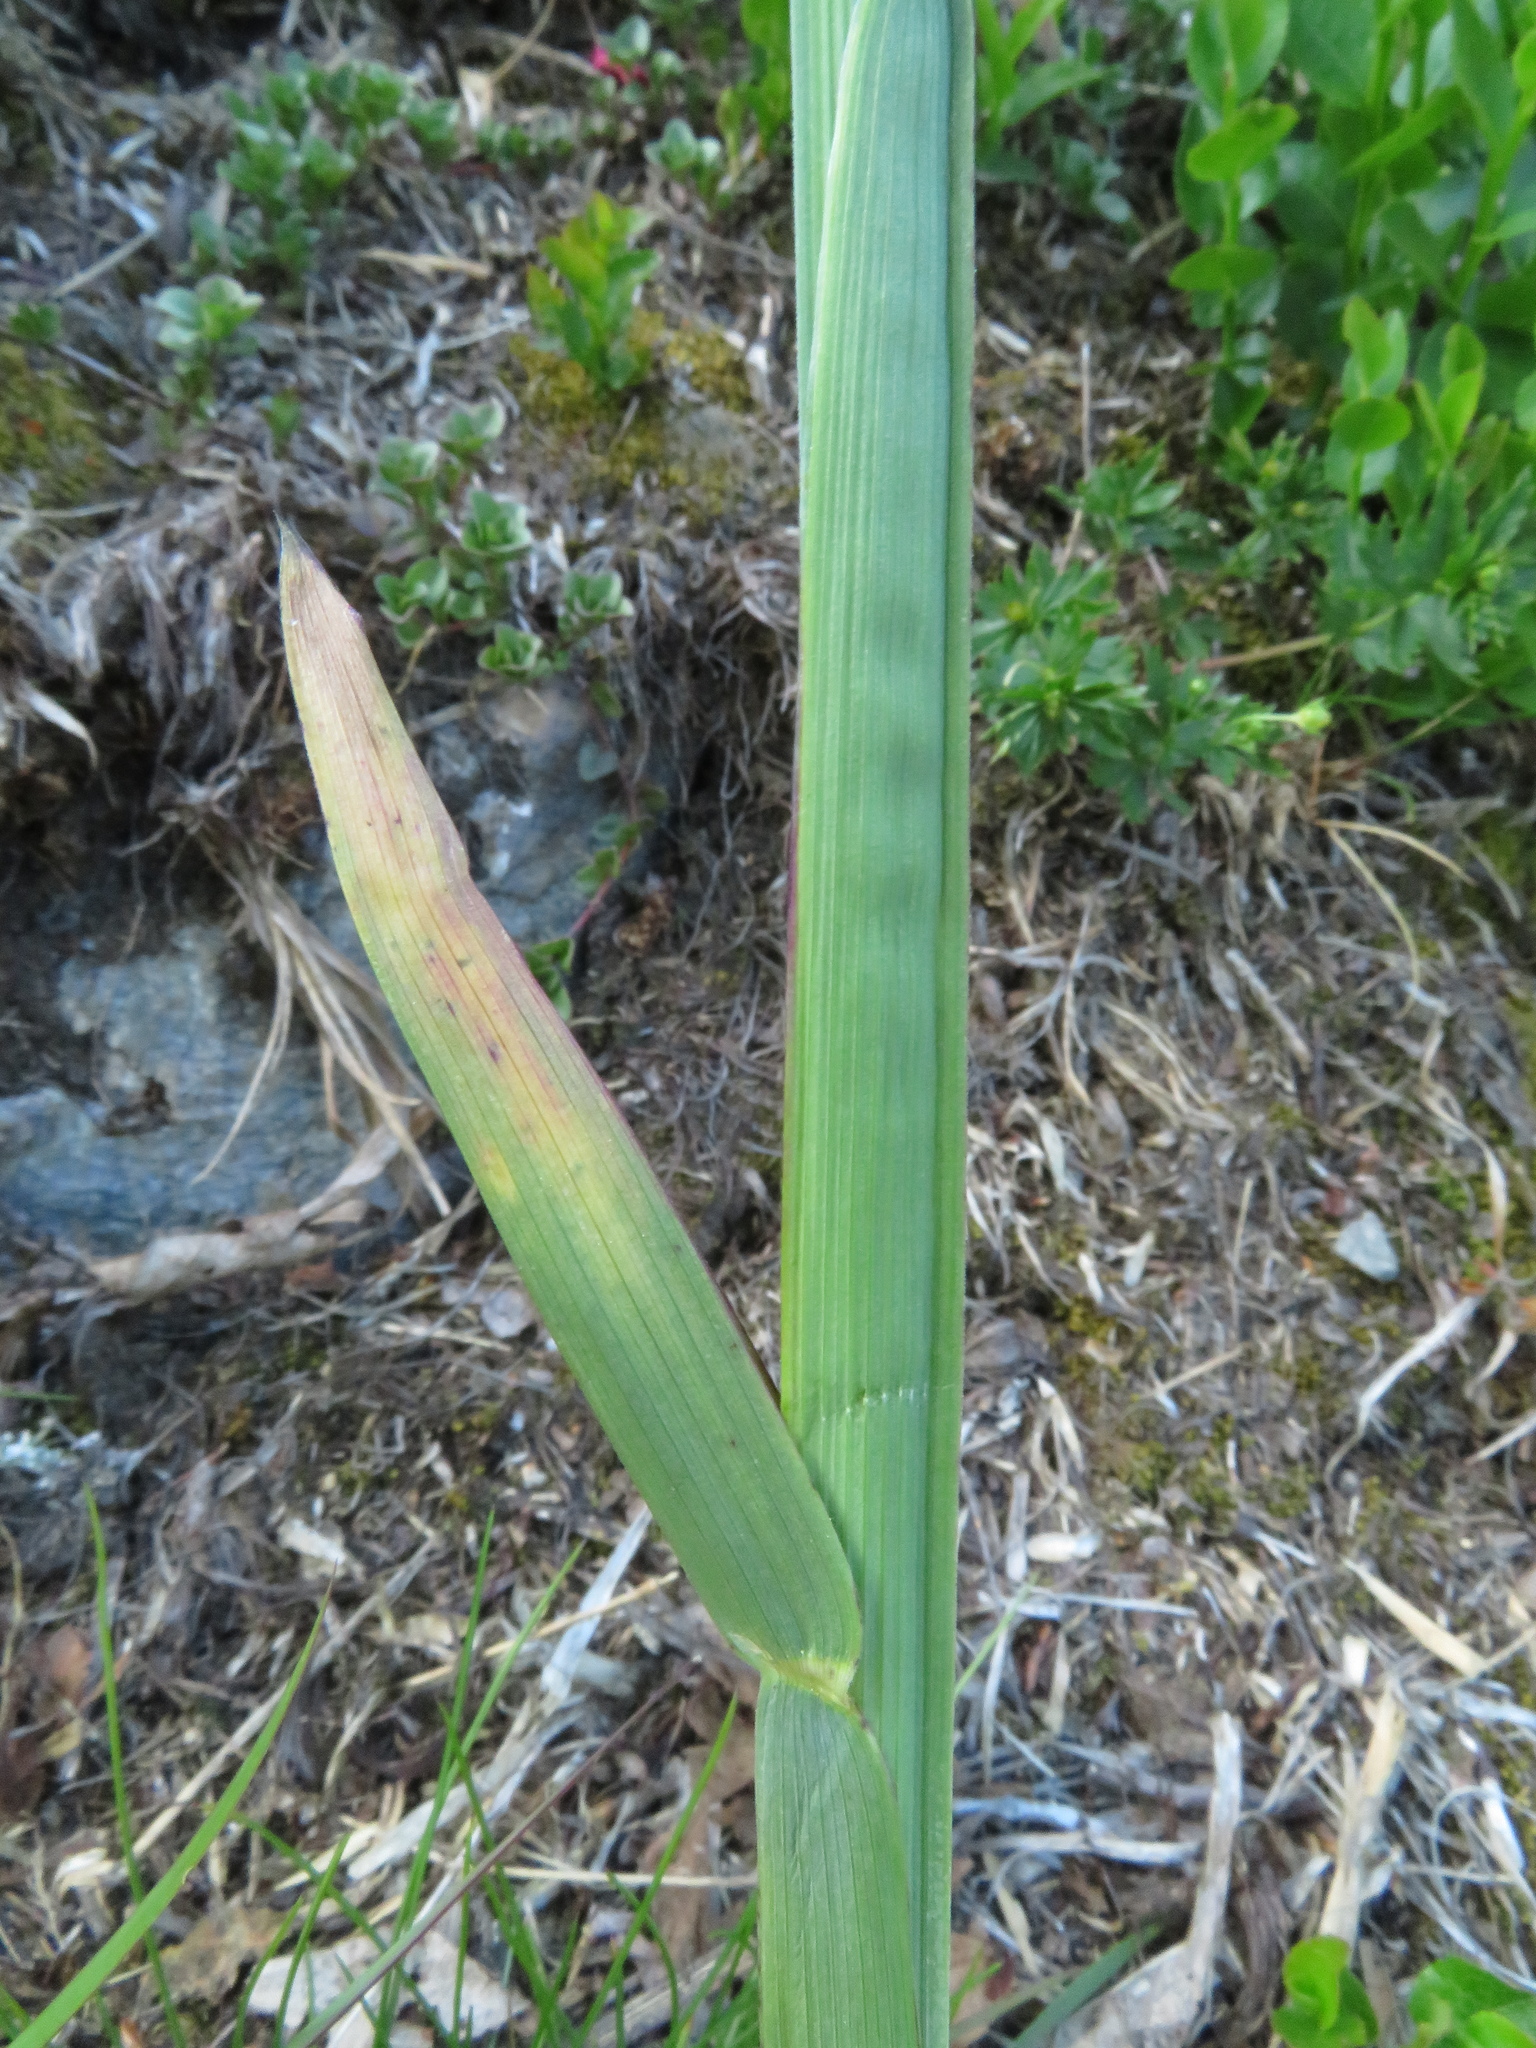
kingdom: Plantae
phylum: Tracheophyta
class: Liliopsida
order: Poales
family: Poaceae
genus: Poa
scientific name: Poa chaixii
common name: Broad-leaved meadow-grass
